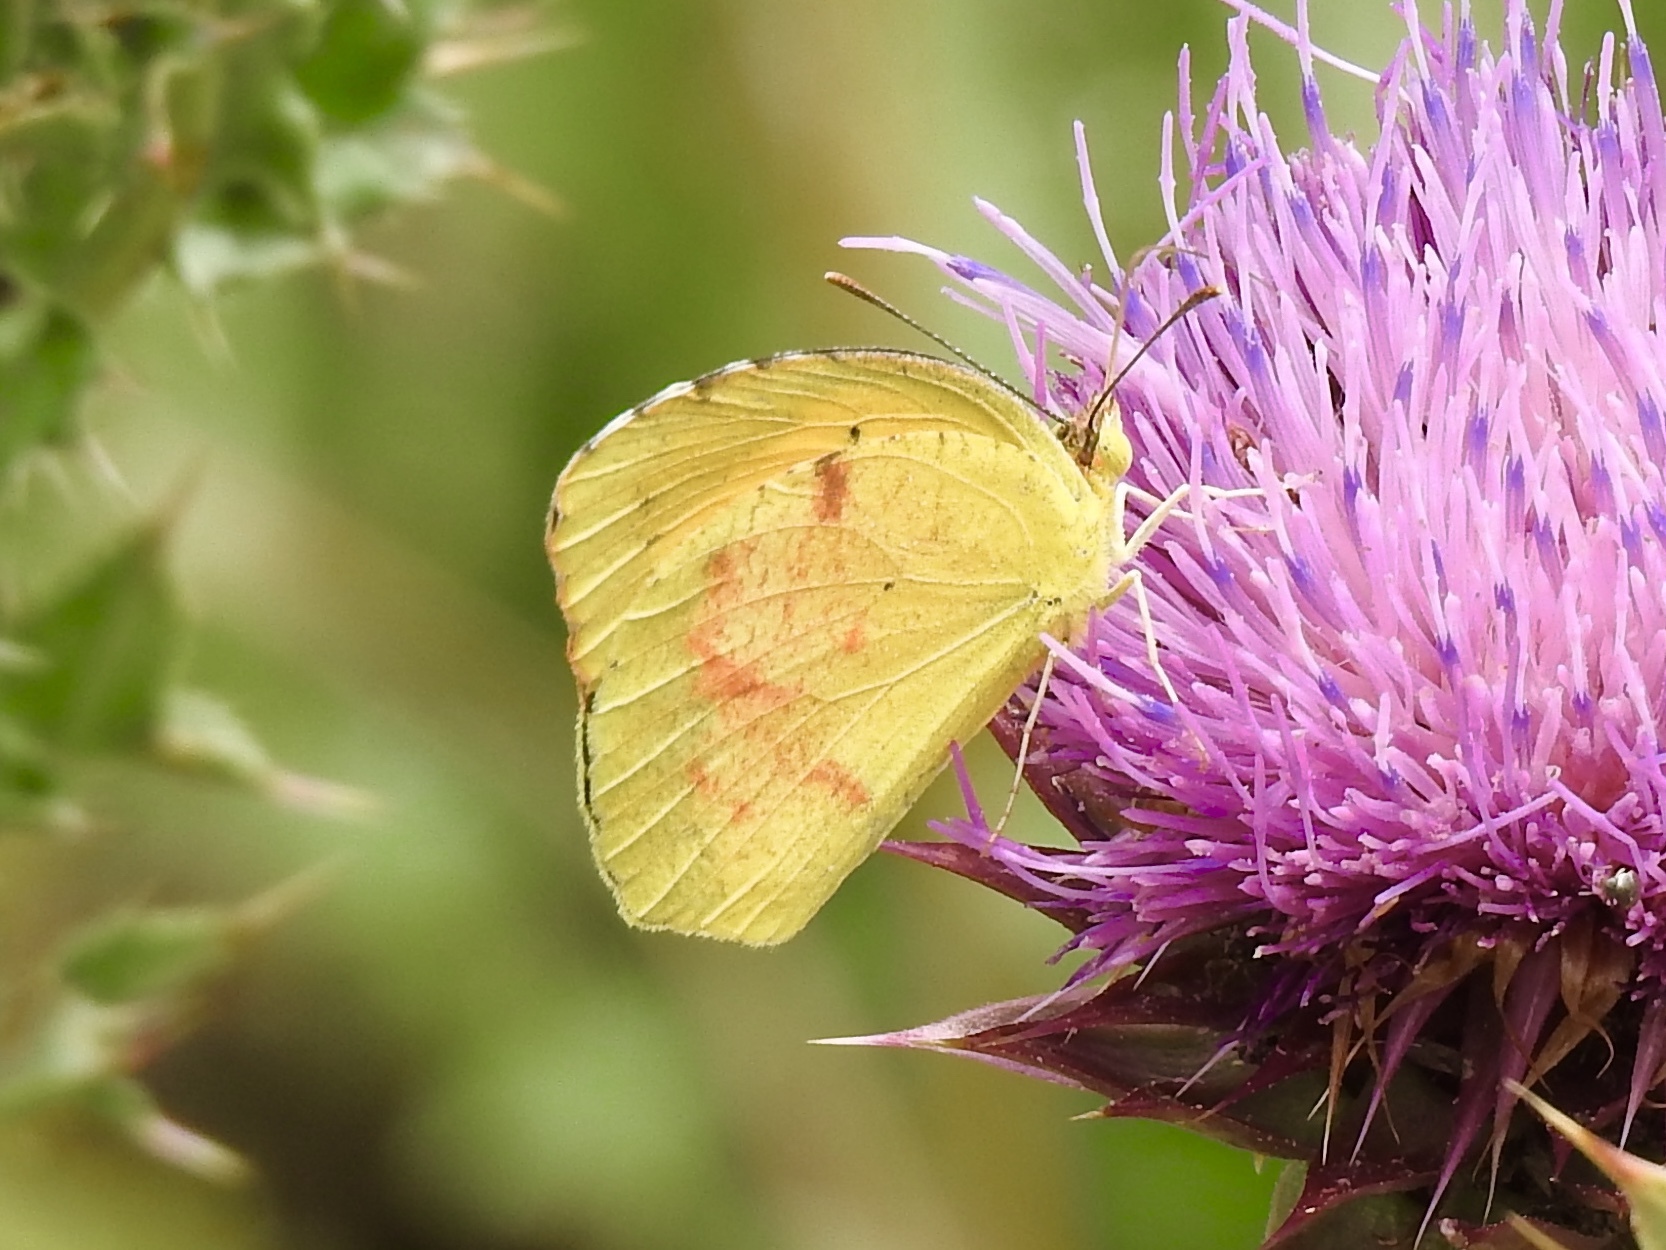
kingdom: Animalia
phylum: Arthropoda
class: Insecta
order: Lepidoptera
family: Pieridae
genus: Abaeis
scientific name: Abaeis nicippe
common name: Sleepy orange
